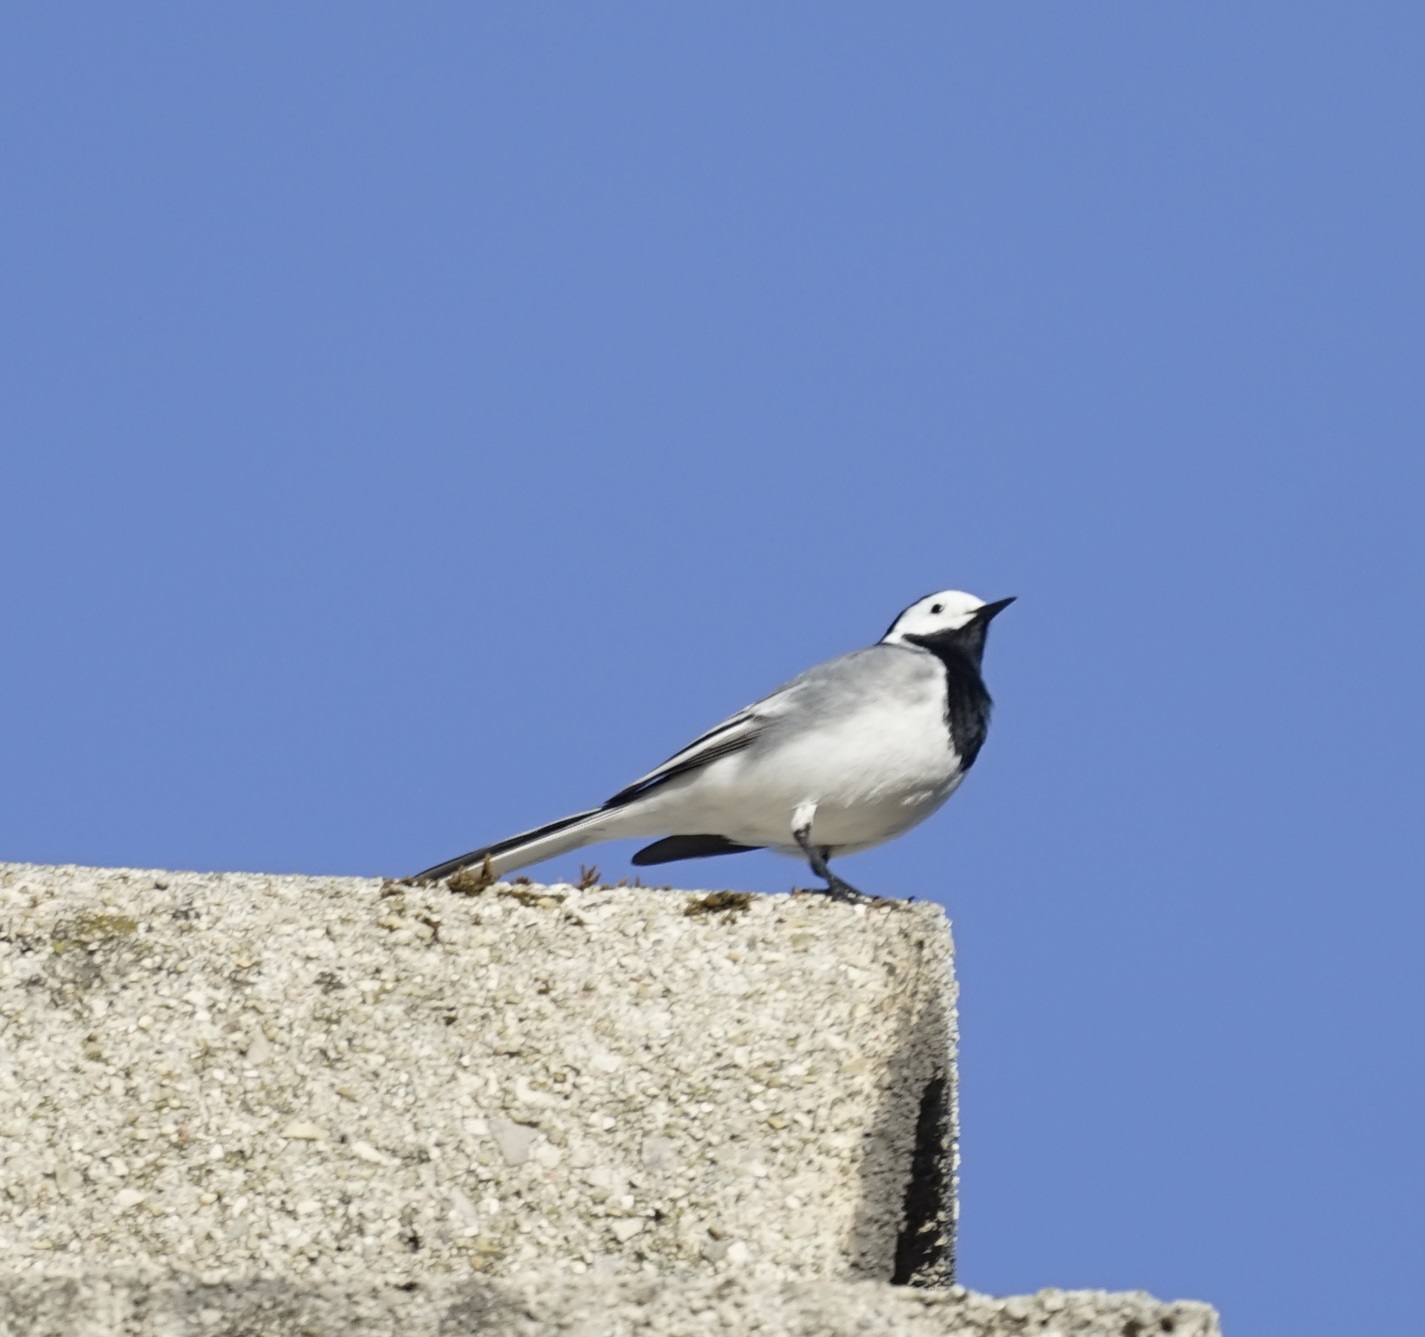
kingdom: Animalia
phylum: Chordata
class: Aves
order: Passeriformes
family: Motacillidae
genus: Motacilla
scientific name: Motacilla alba
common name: White wagtail
